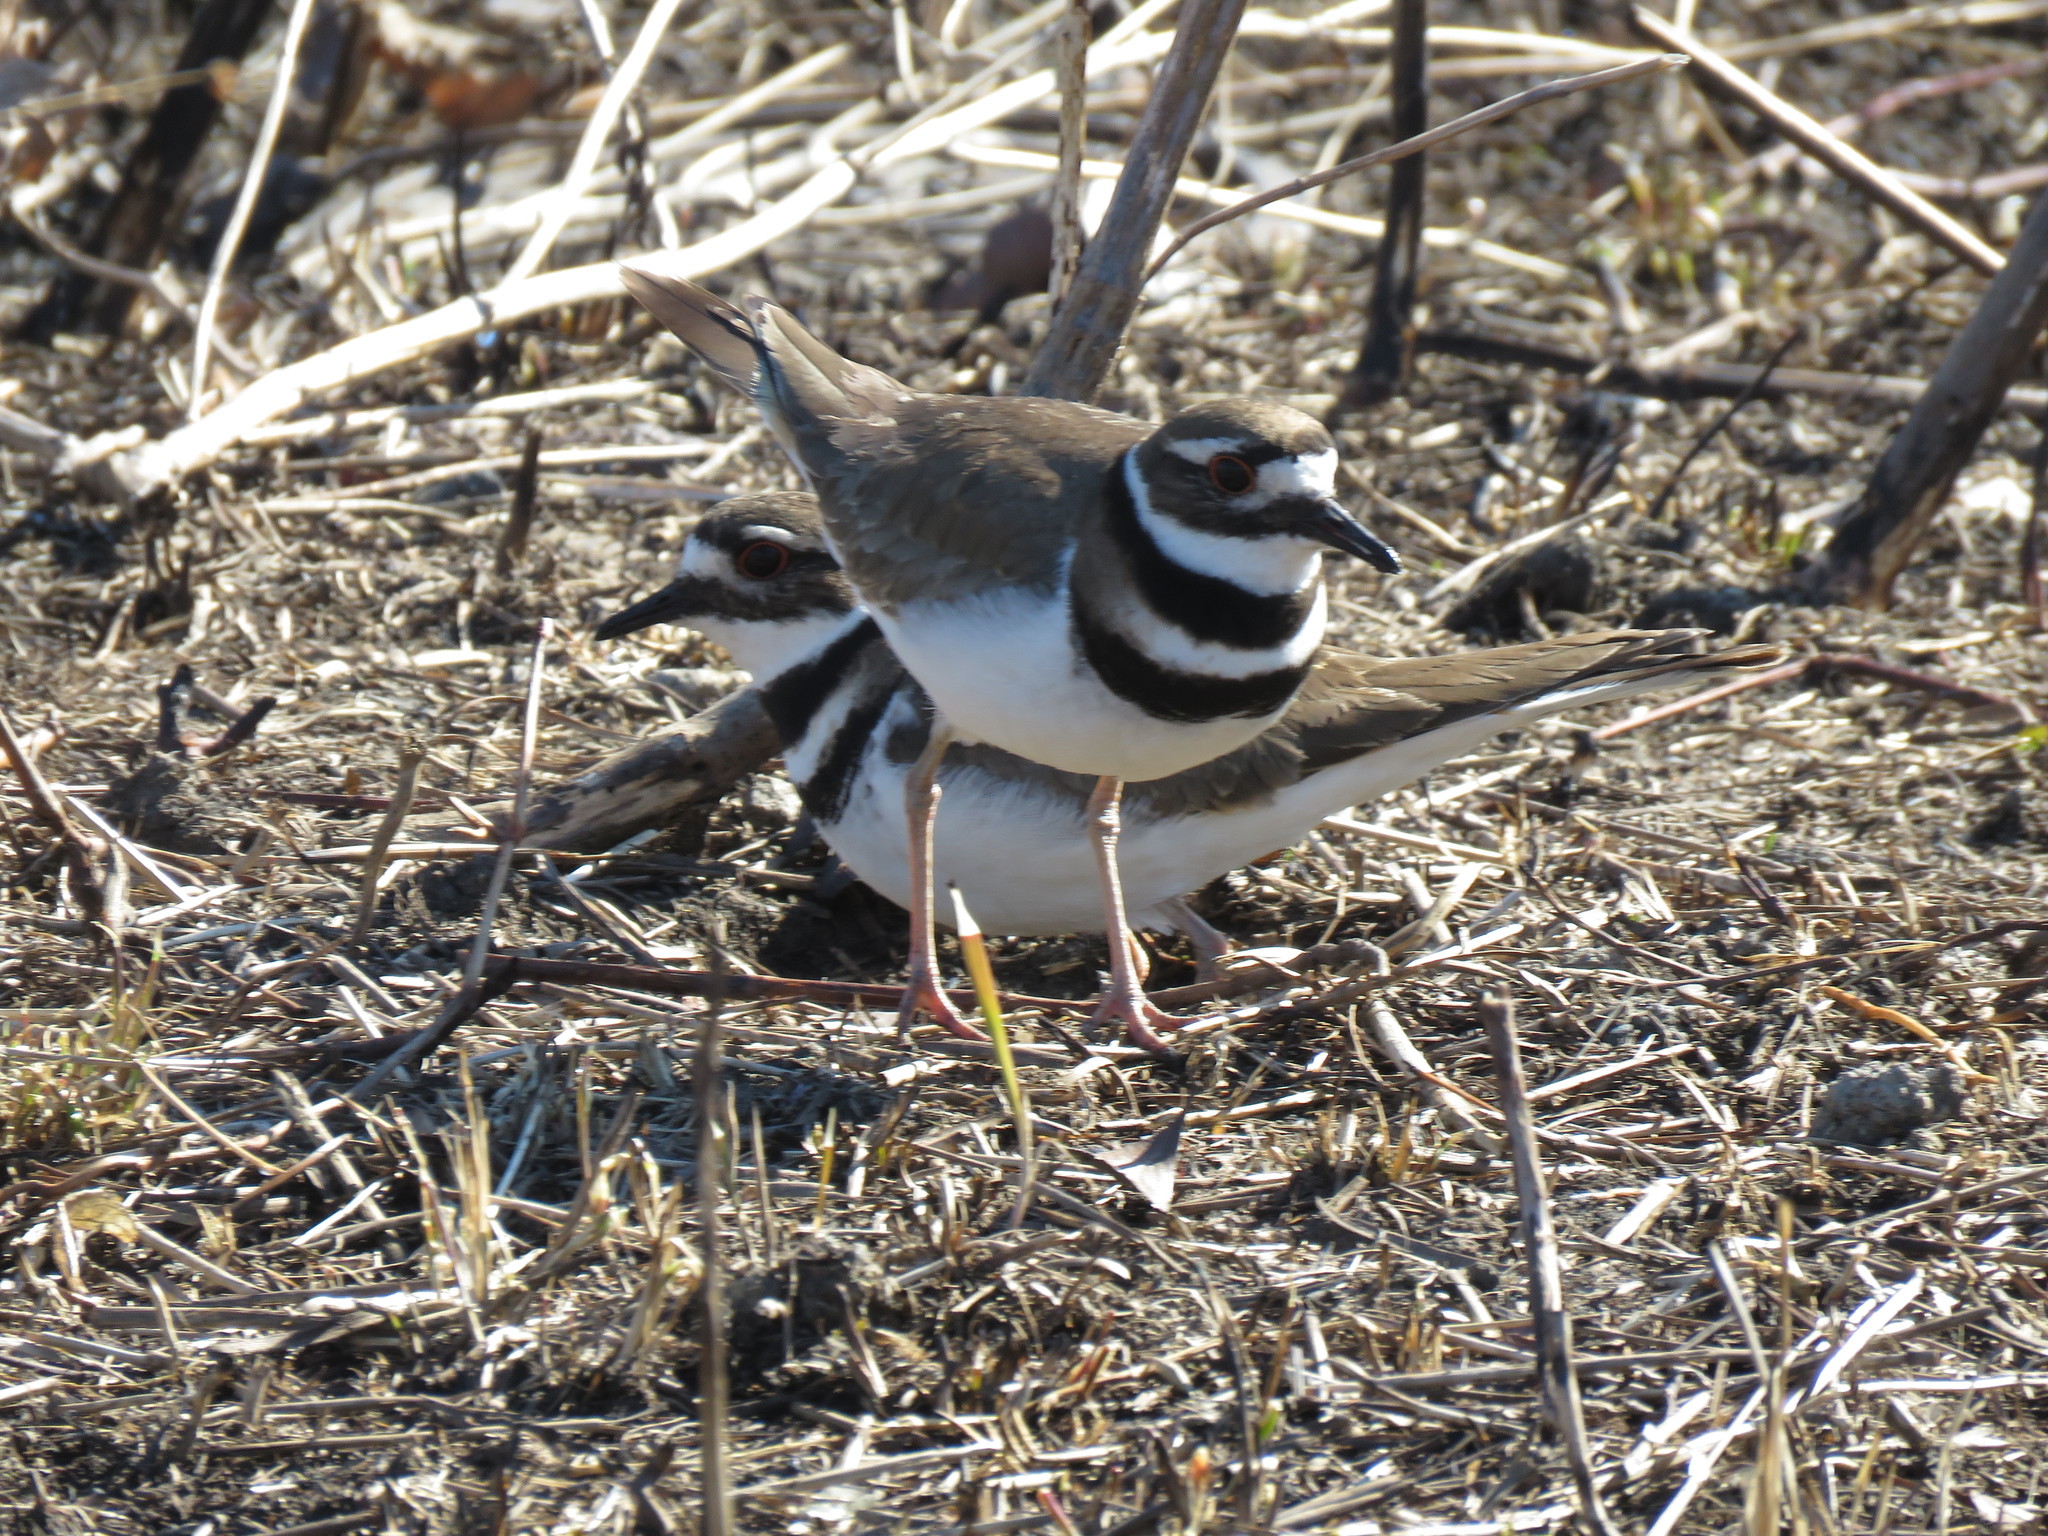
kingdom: Animalia
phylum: Chordata
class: Aves
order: Charadriiformes
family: Charadriidae
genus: Charadrius
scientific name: Charadrius vociferus
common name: Killdeer
